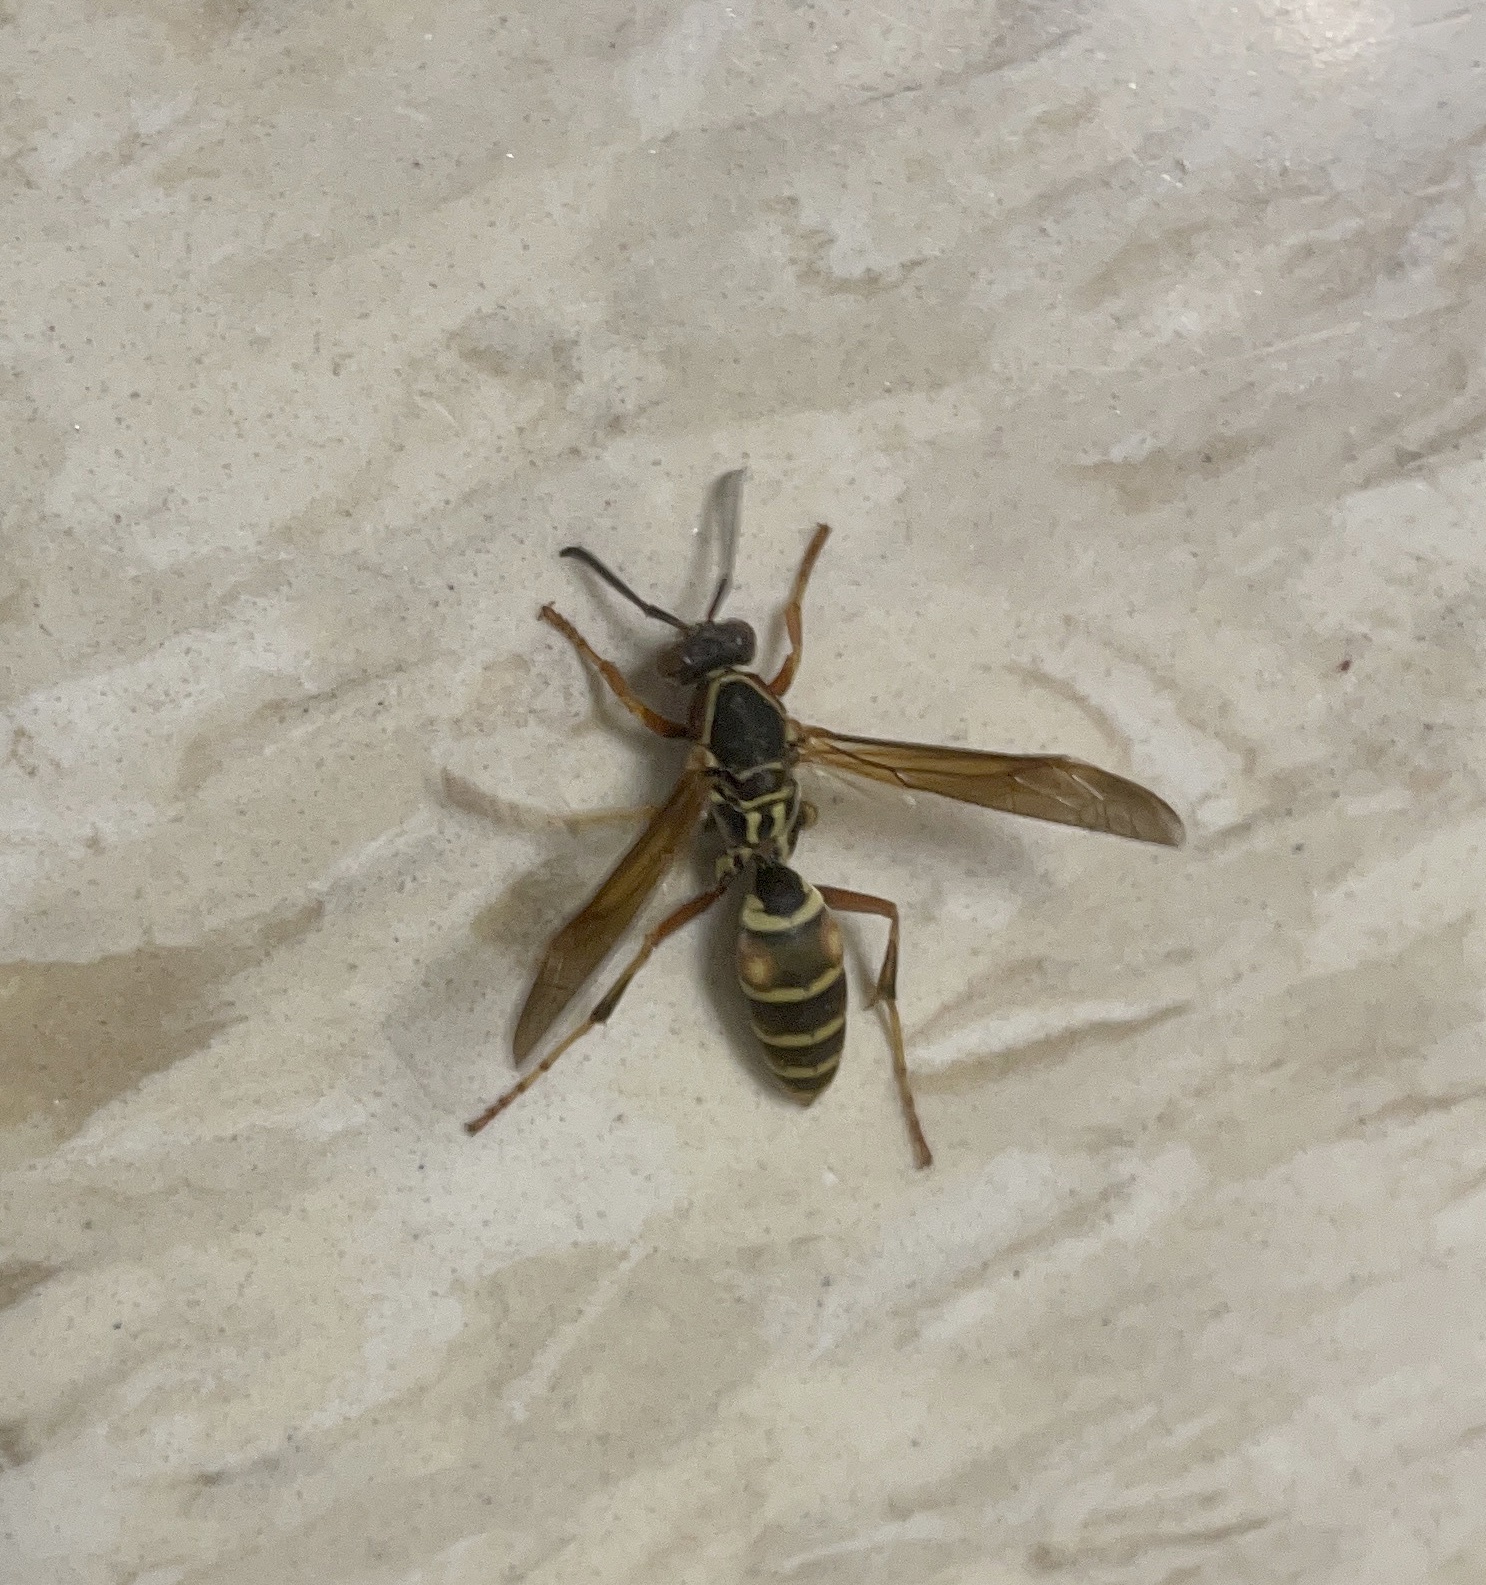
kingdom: Animalia
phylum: Arthropoda
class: Insecta
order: Hymenoptera
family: Eumenidae
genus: Polistes
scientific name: Polistes fuscatus
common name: Dark paper wasp
